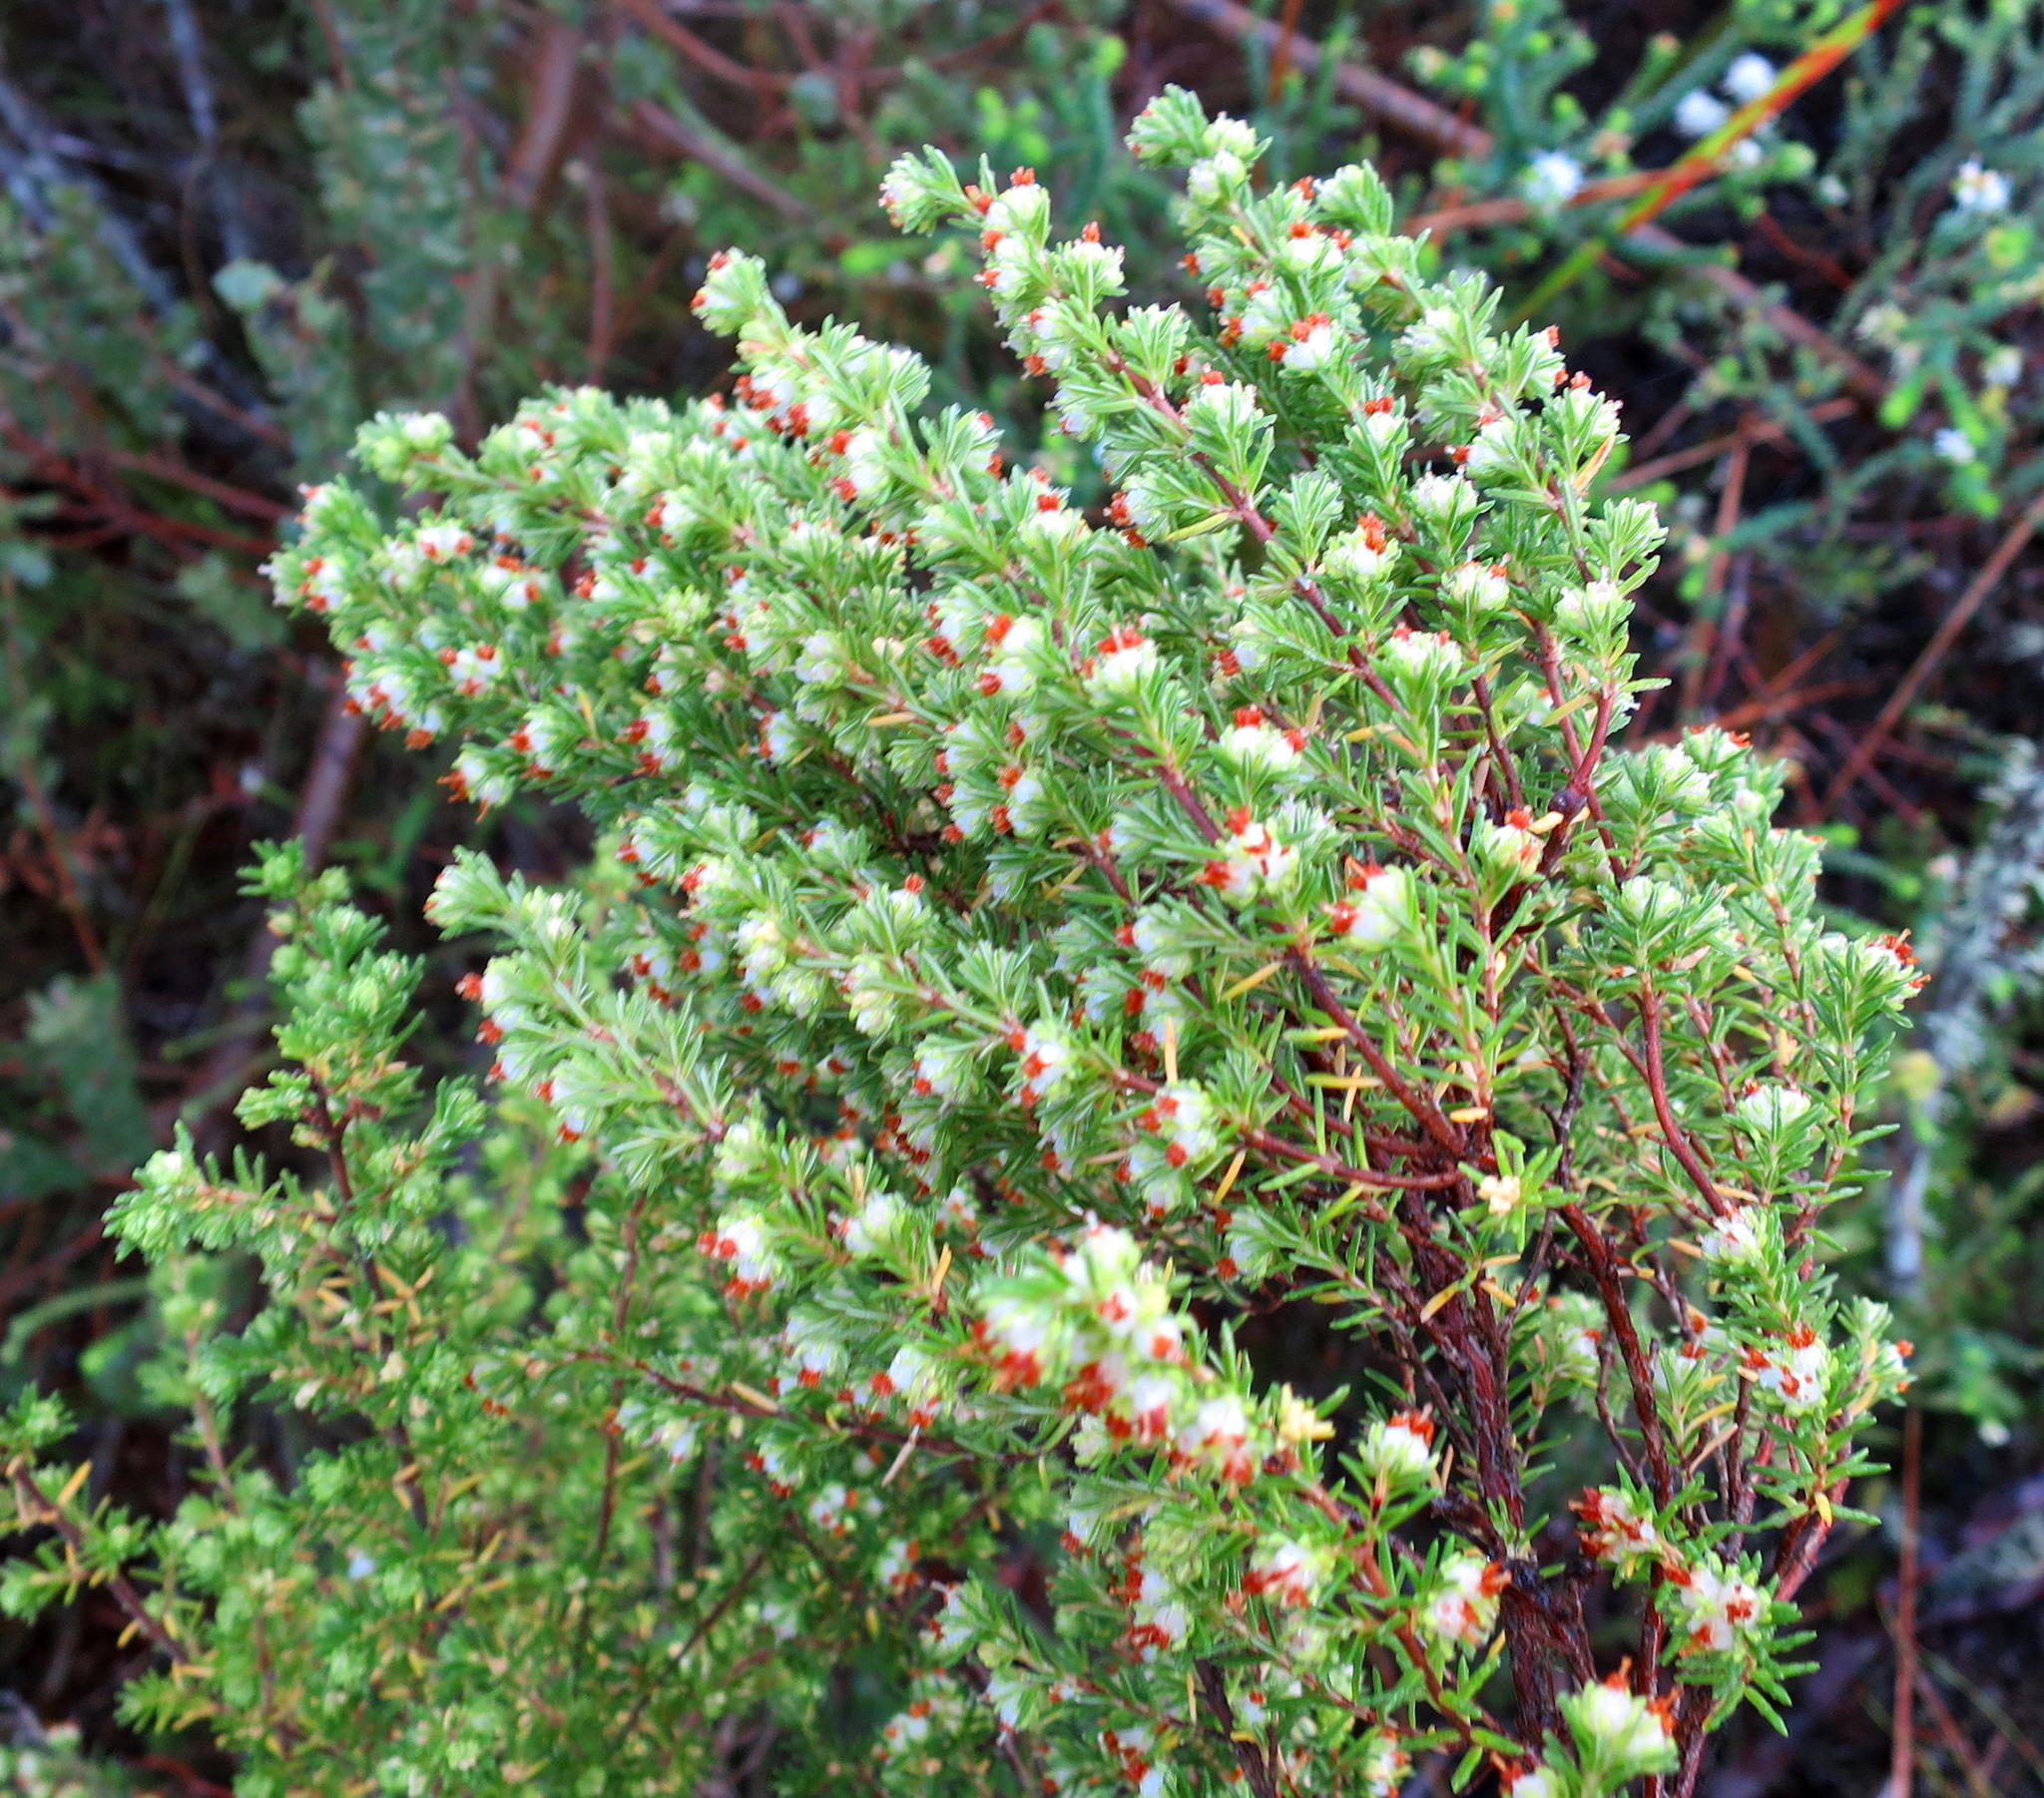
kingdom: Plantae
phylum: Tracheophyta
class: Magnoliopsida
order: Ericales
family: Ericaceae
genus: Erica
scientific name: Erica glumiflora
